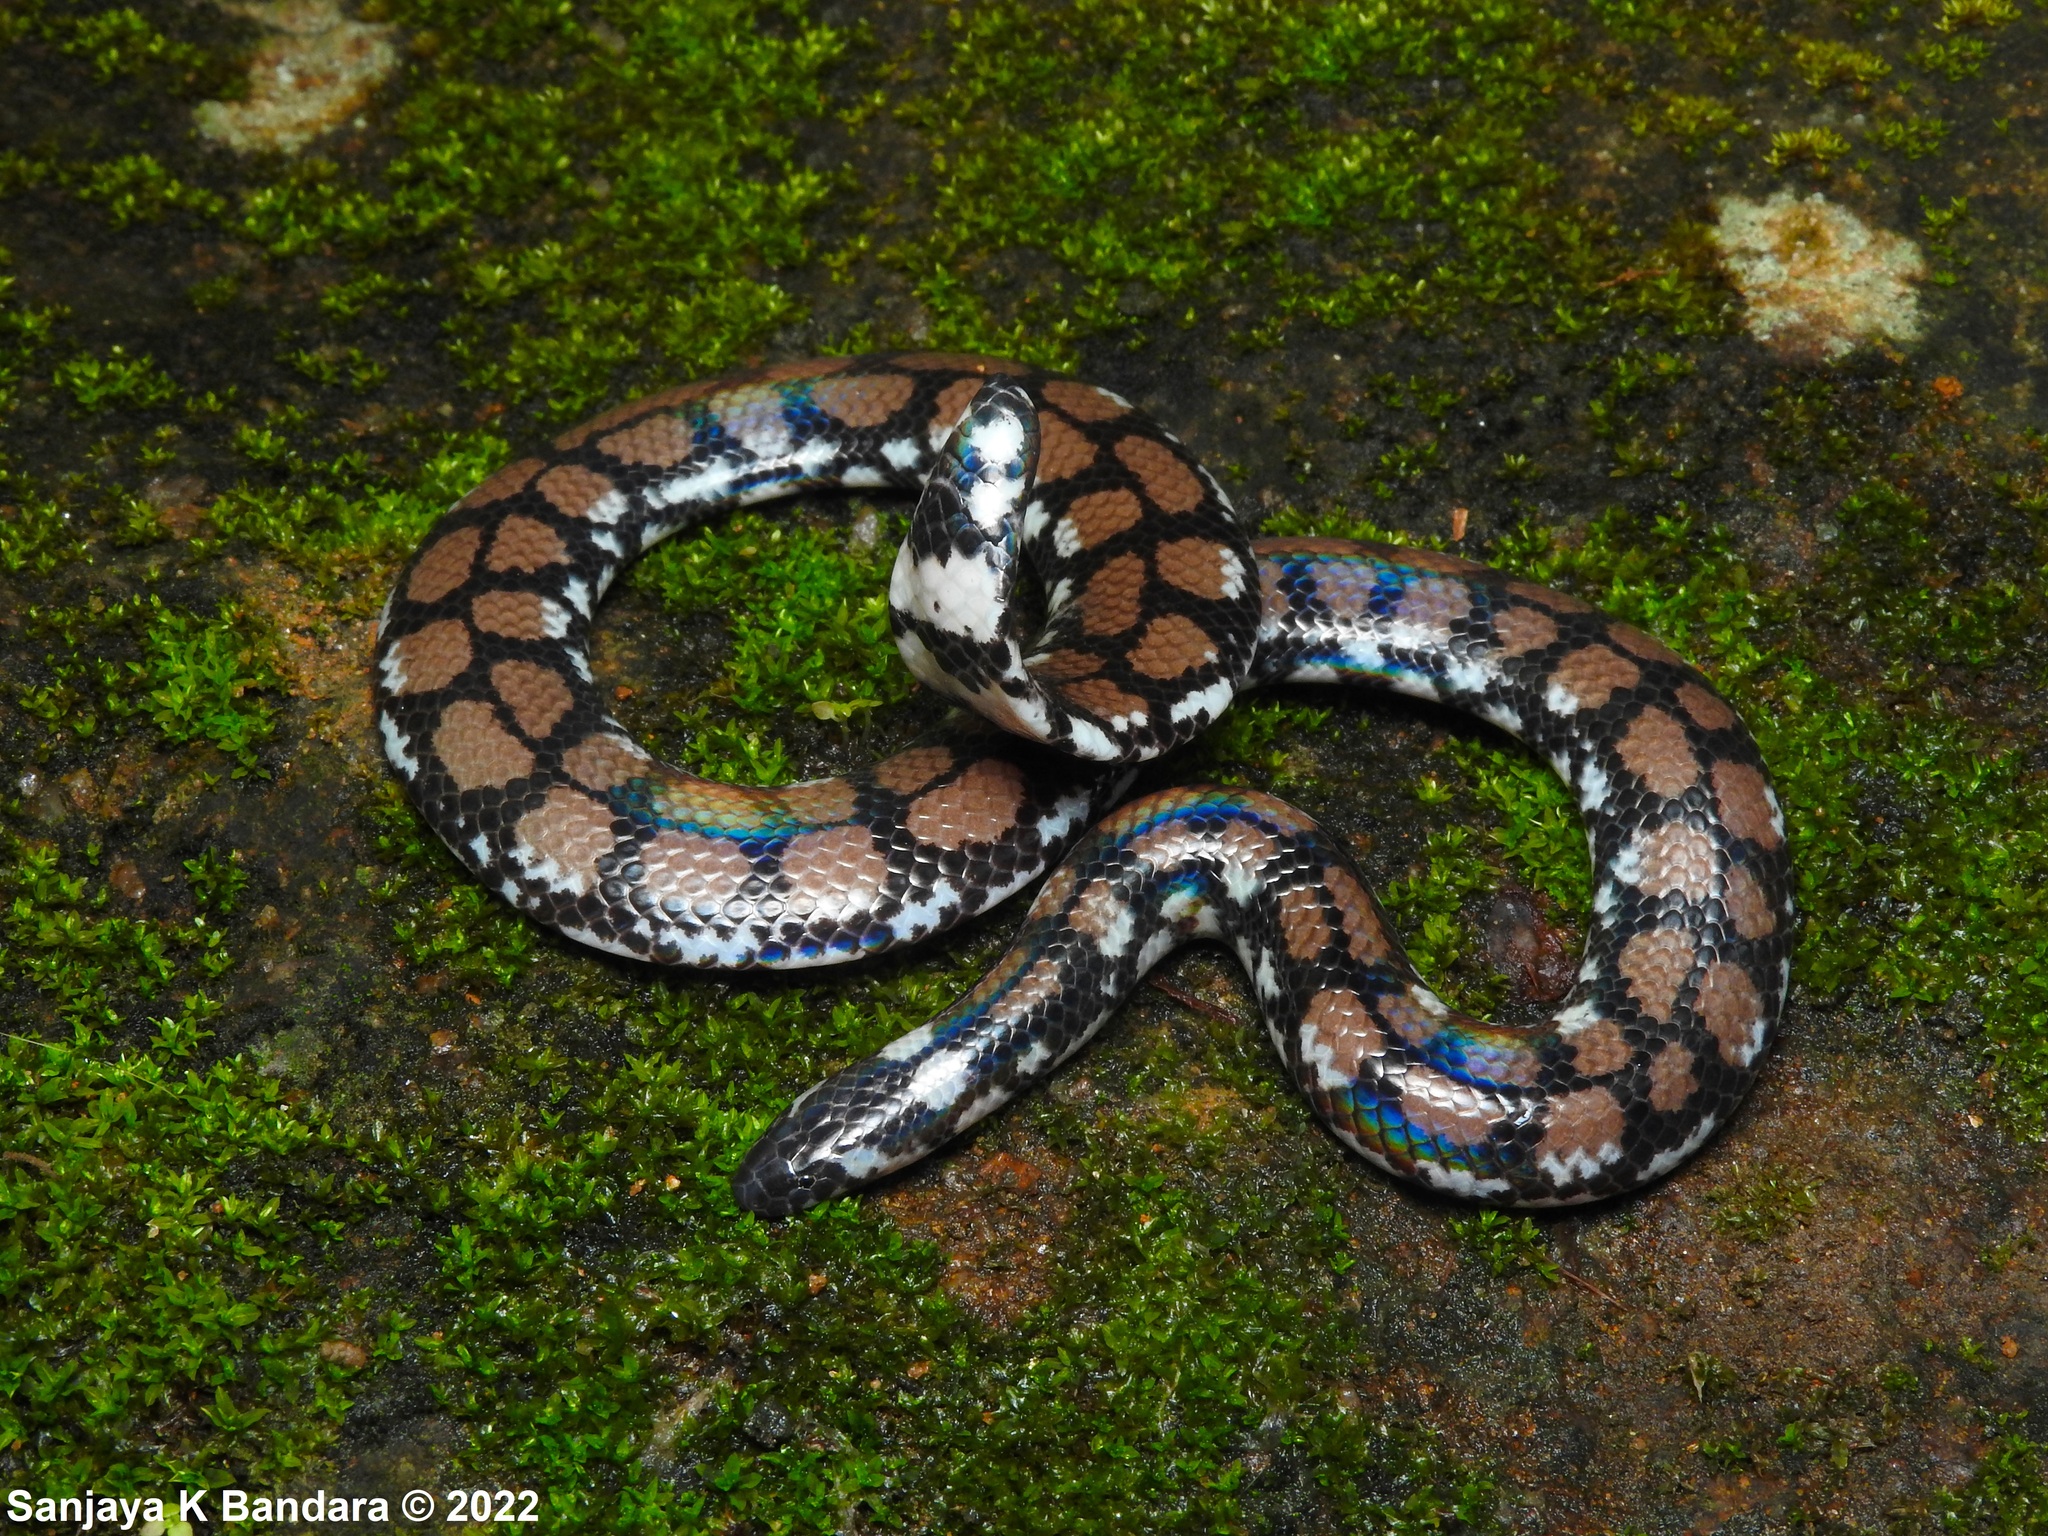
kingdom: Animalia
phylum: Chordata
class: Squamata
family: Cylindrophiidae
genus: Cylindrophis
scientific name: Cylindrophis maculatus
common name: Ceylonese cylinder snake
